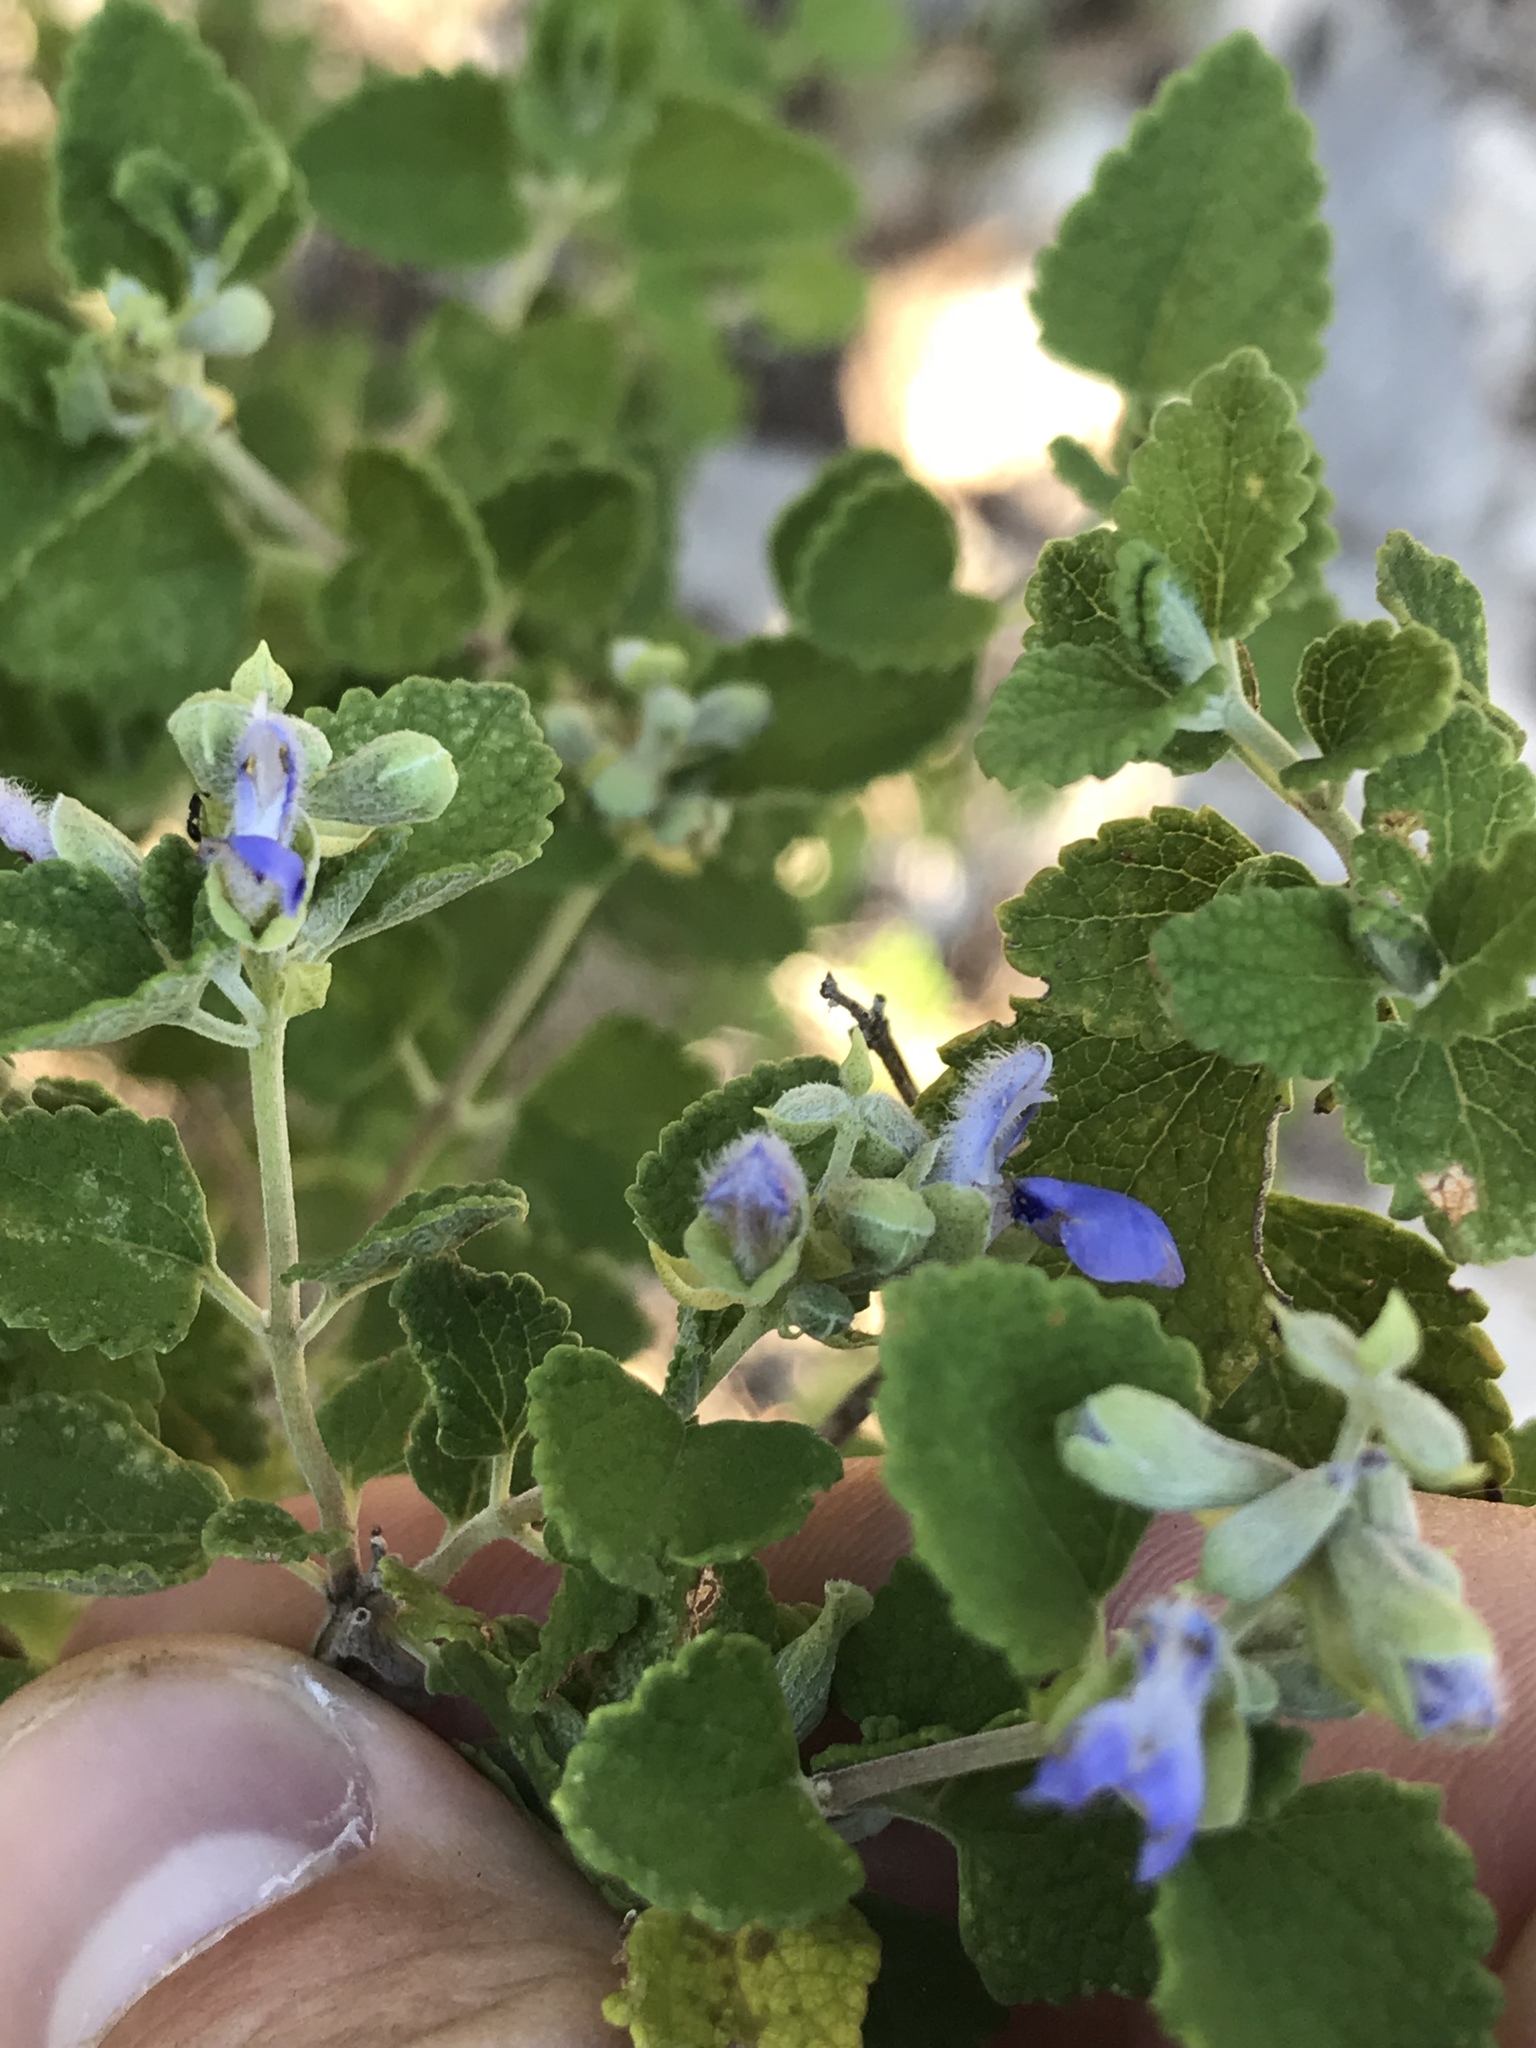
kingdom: Plantae
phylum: Tracheophyta
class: Magnoliopsida
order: Lamiales
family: Lamiaceae
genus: Salvia
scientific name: Salvia ballotiflora
